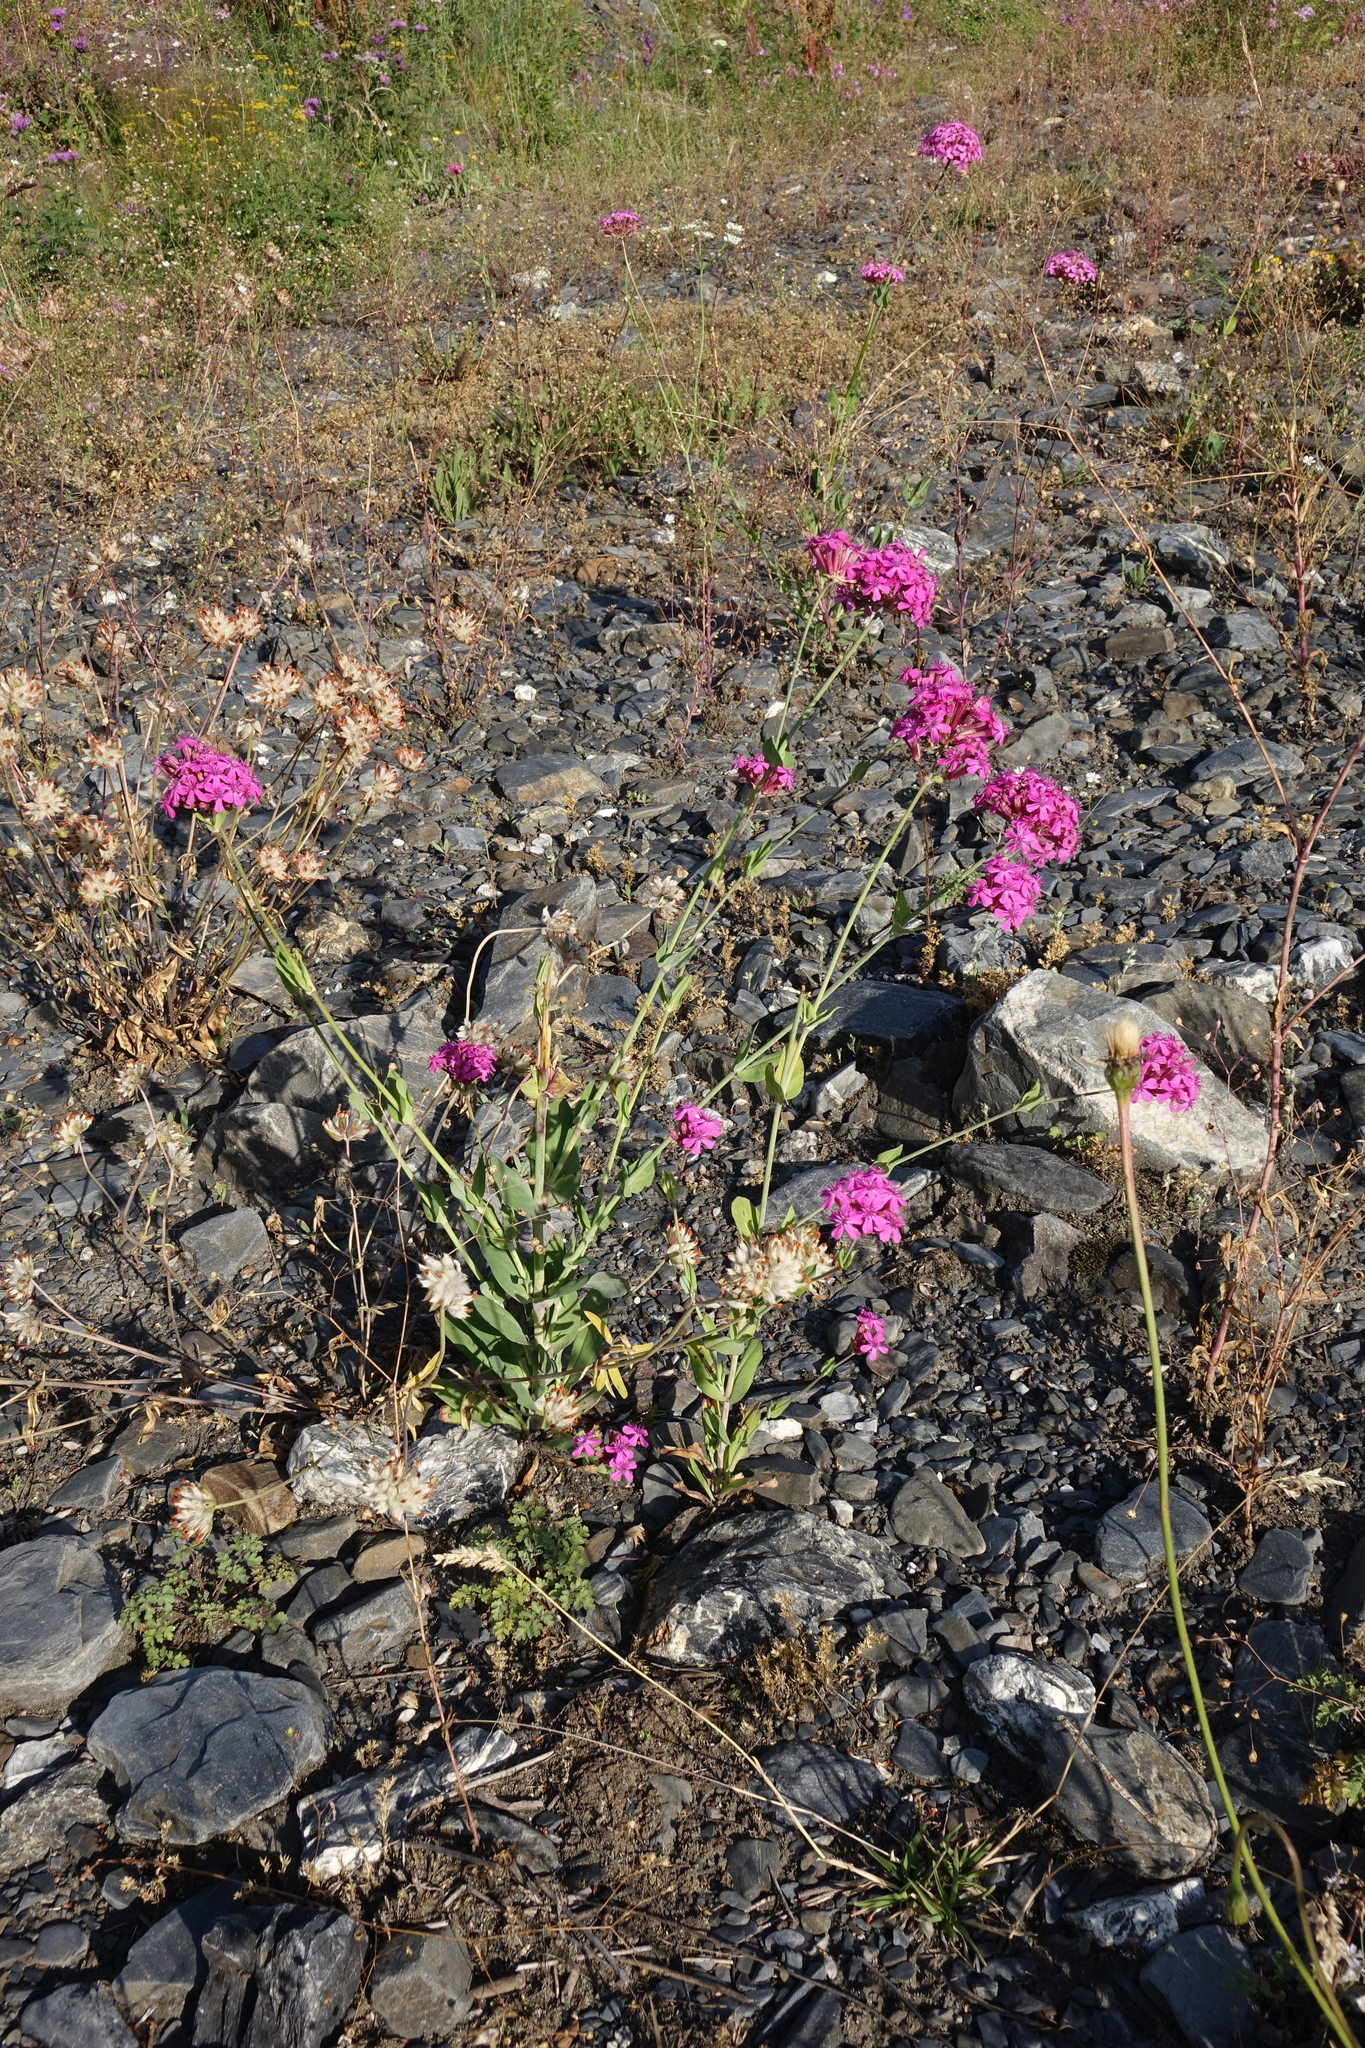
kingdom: Plantae
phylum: Tracheophyta
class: Magnoliopsida
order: Caryophyllales
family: Caryophyllaceae
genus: Atocion
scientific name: Atocion compactum
